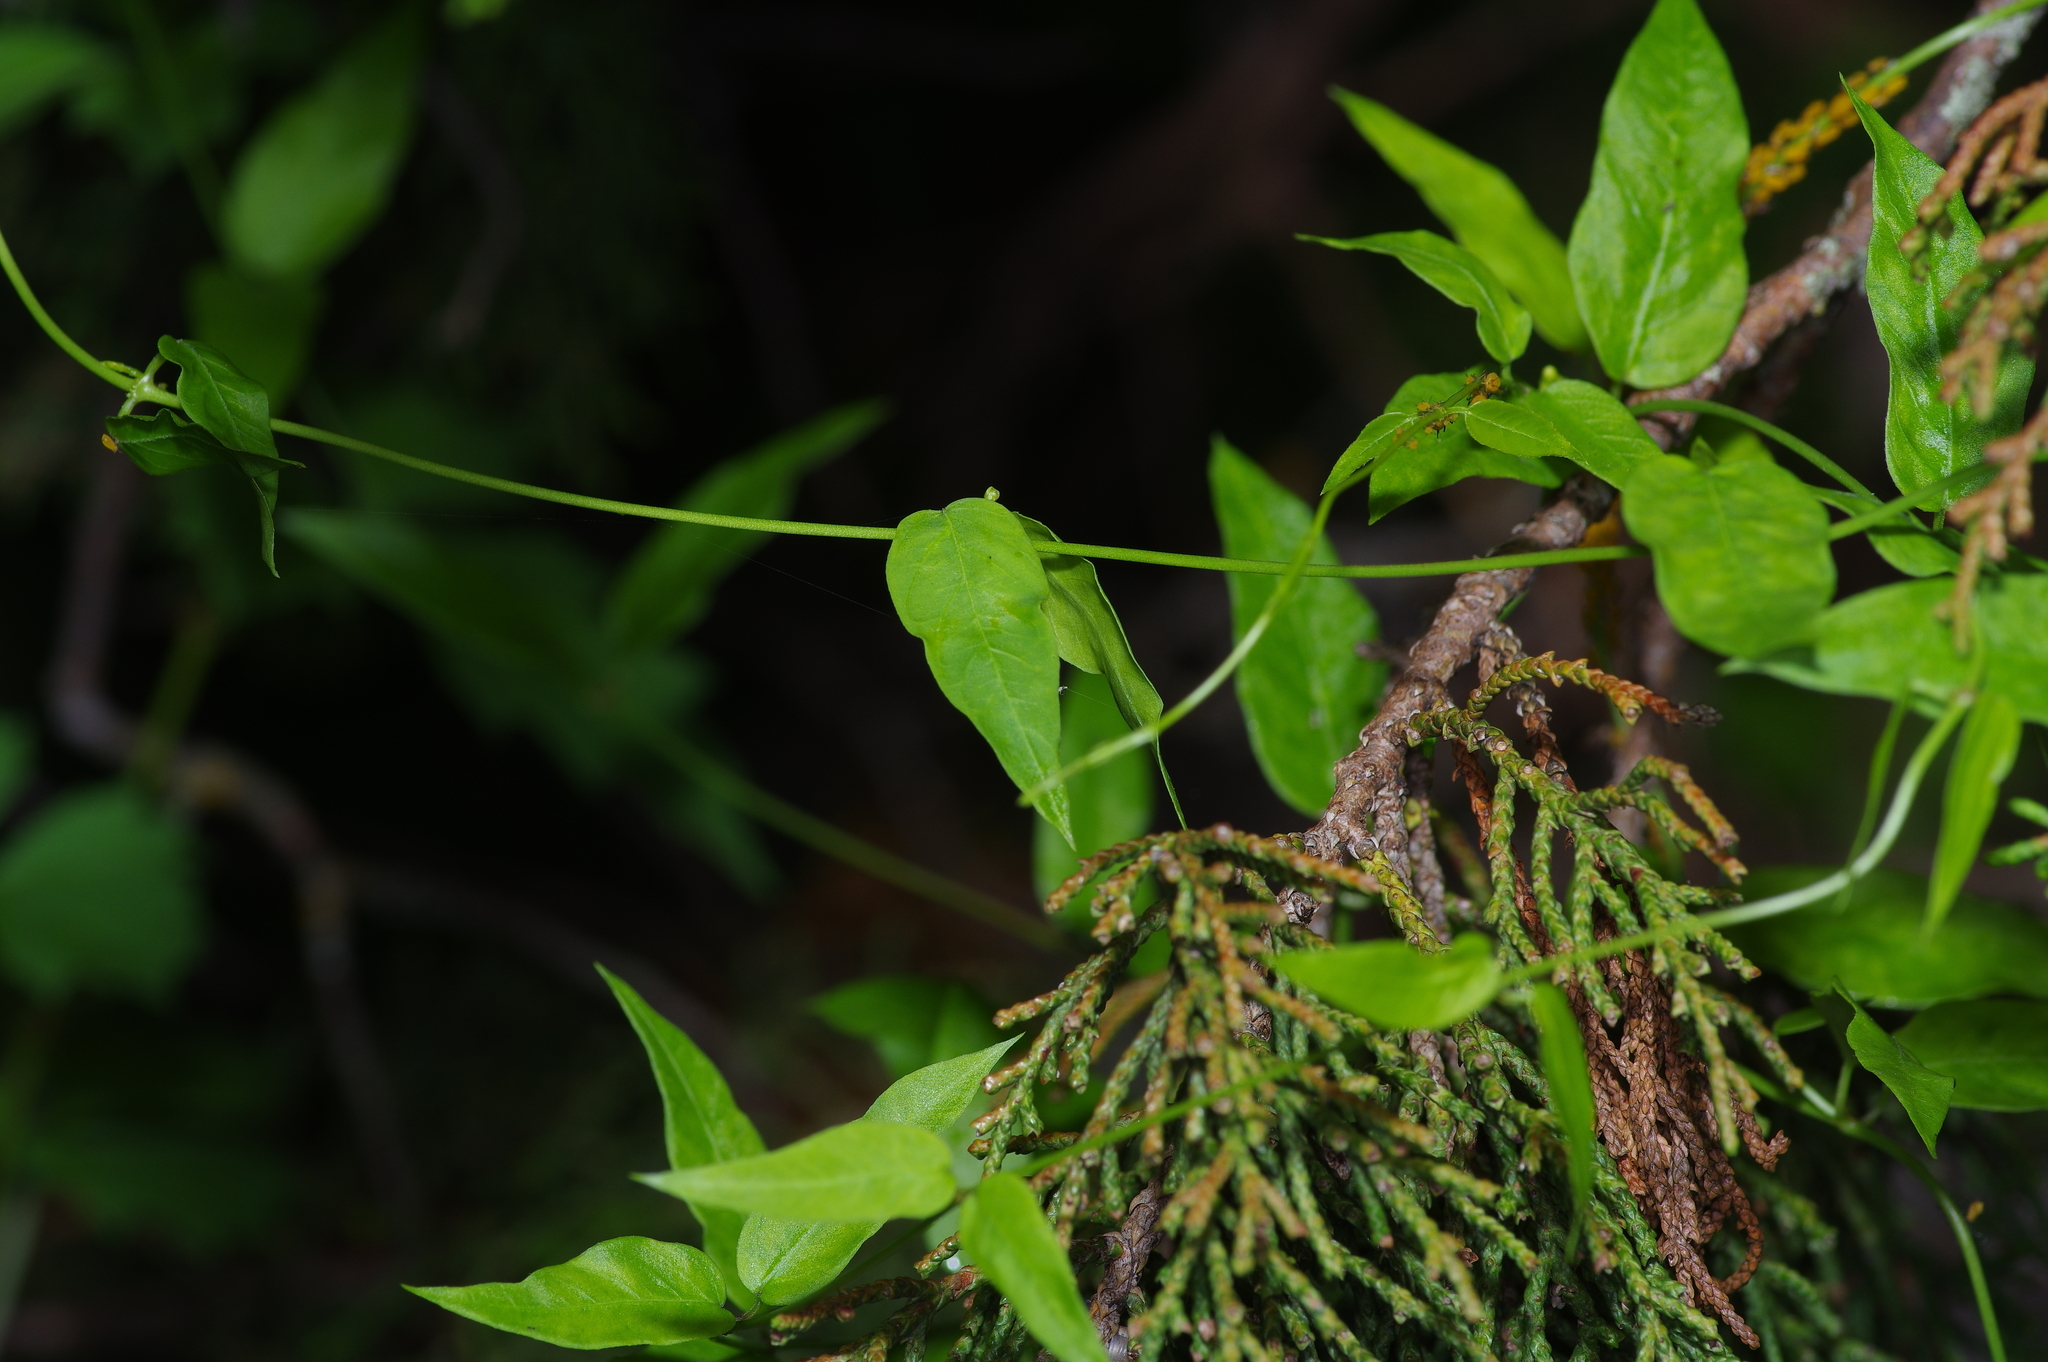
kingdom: Plantae
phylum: Tracheophyta
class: Magnoliopsida
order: Gentianales
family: Apocynaceae
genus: Metastelma
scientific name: Metastelma barbigerum
